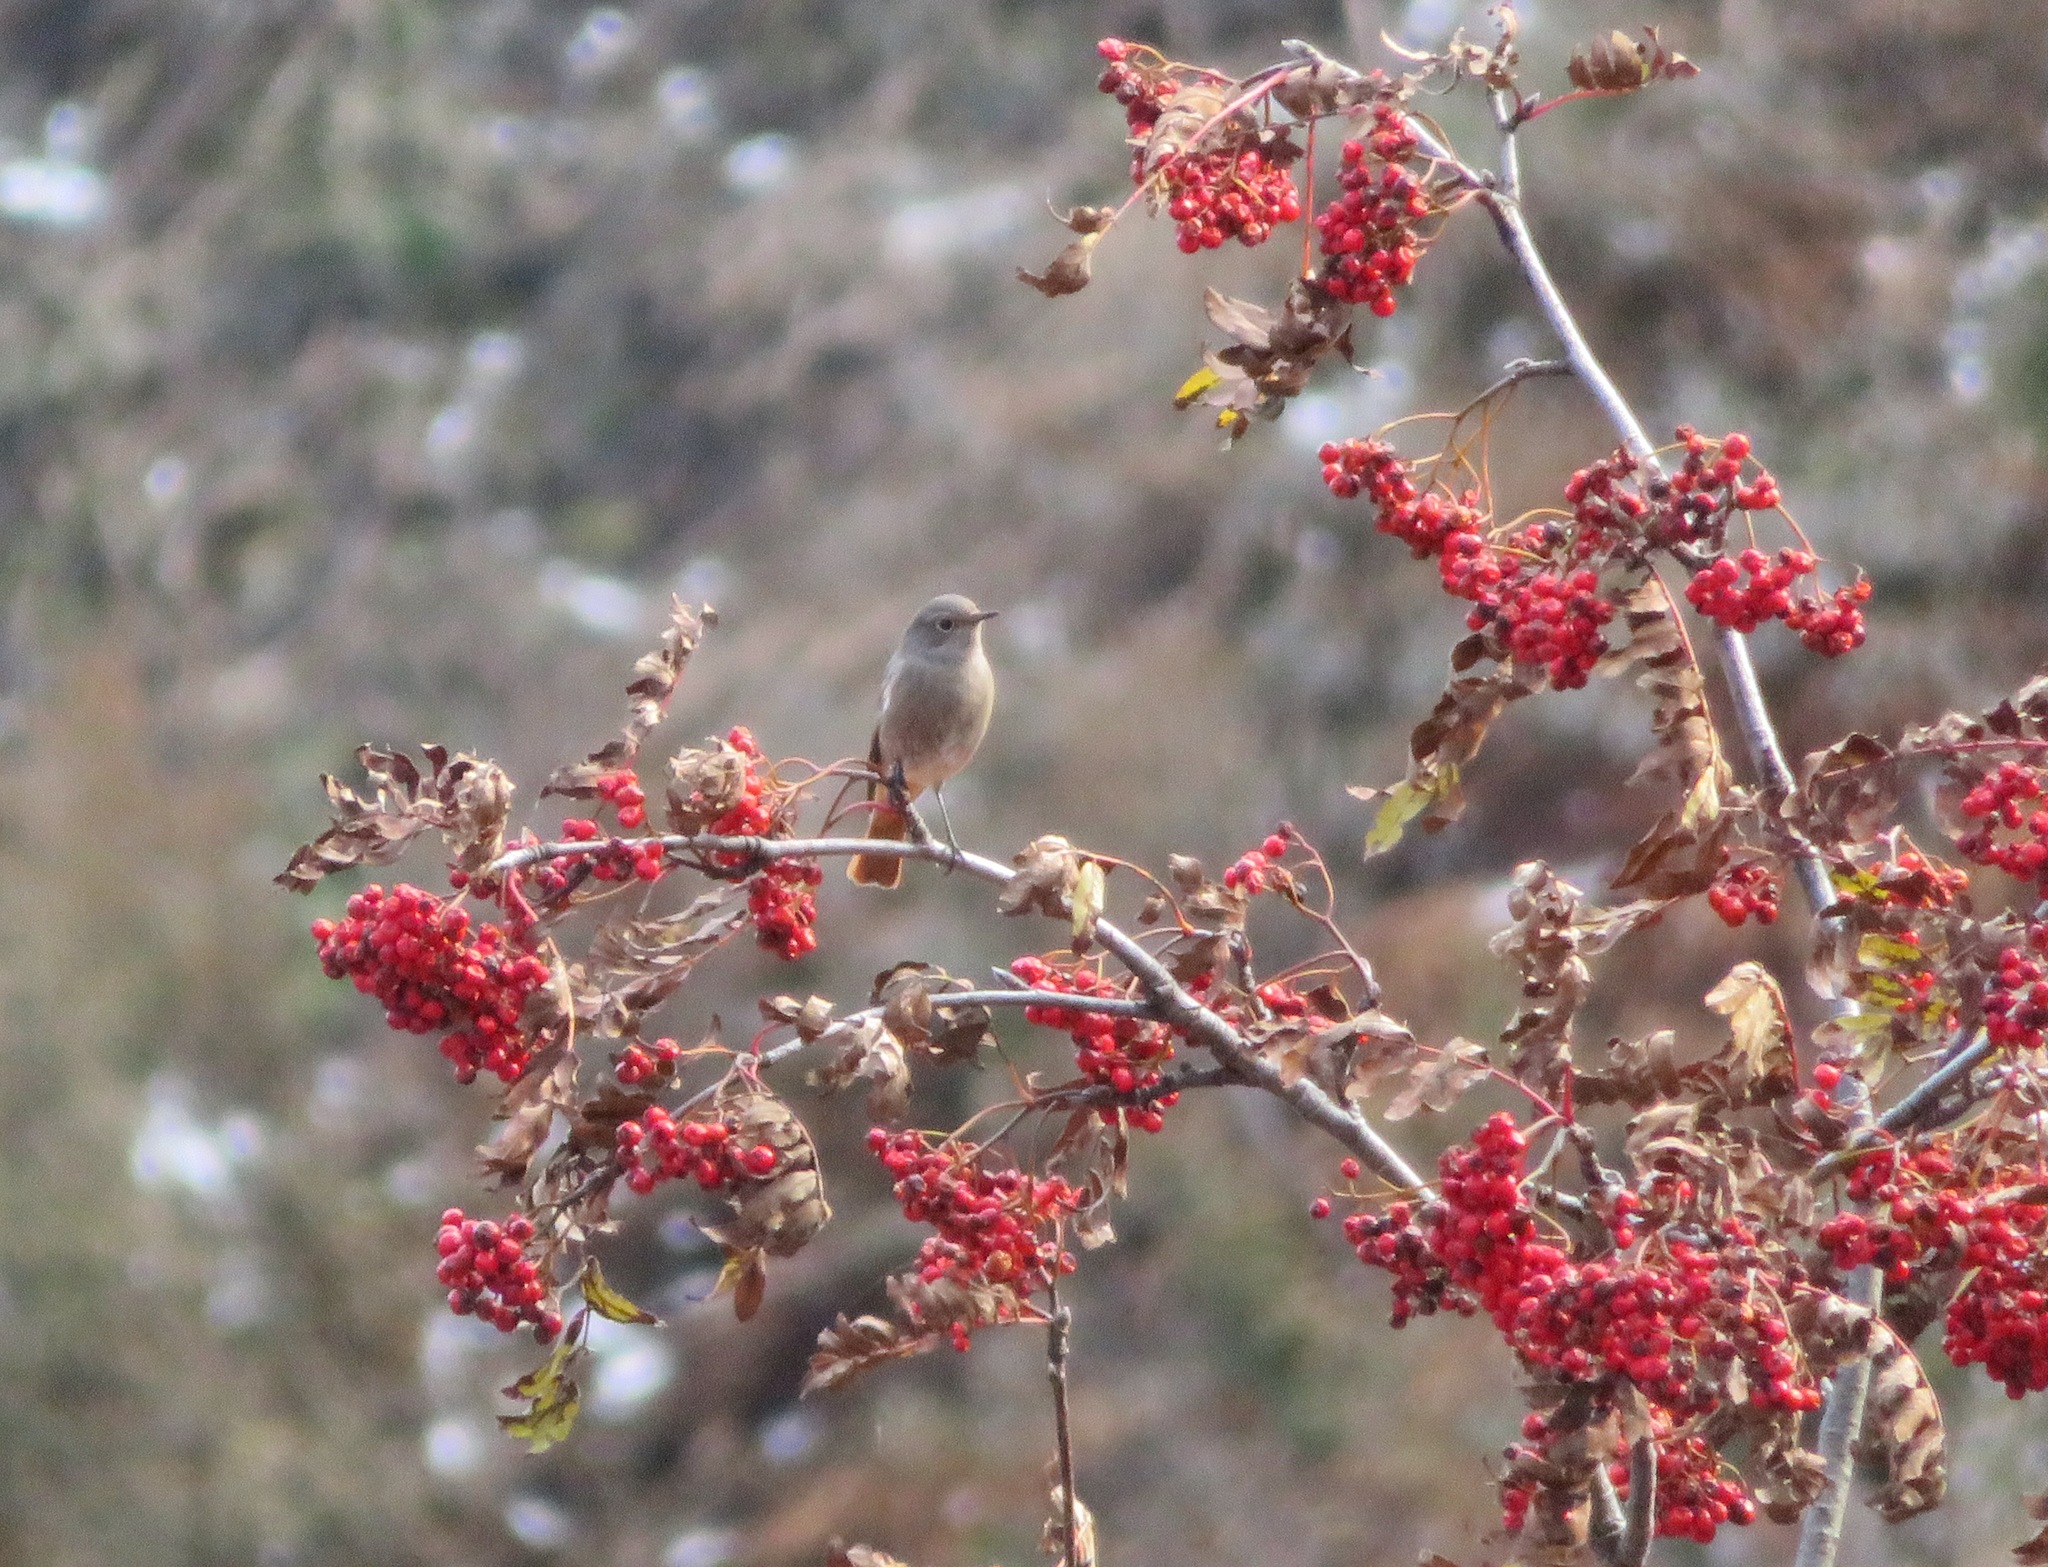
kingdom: Animalia
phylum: Chordata
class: Aves
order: Passeriformes
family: Muscicapidae
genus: Phoenicurus
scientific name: Phoenicurus ochruros
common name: Black redstart
